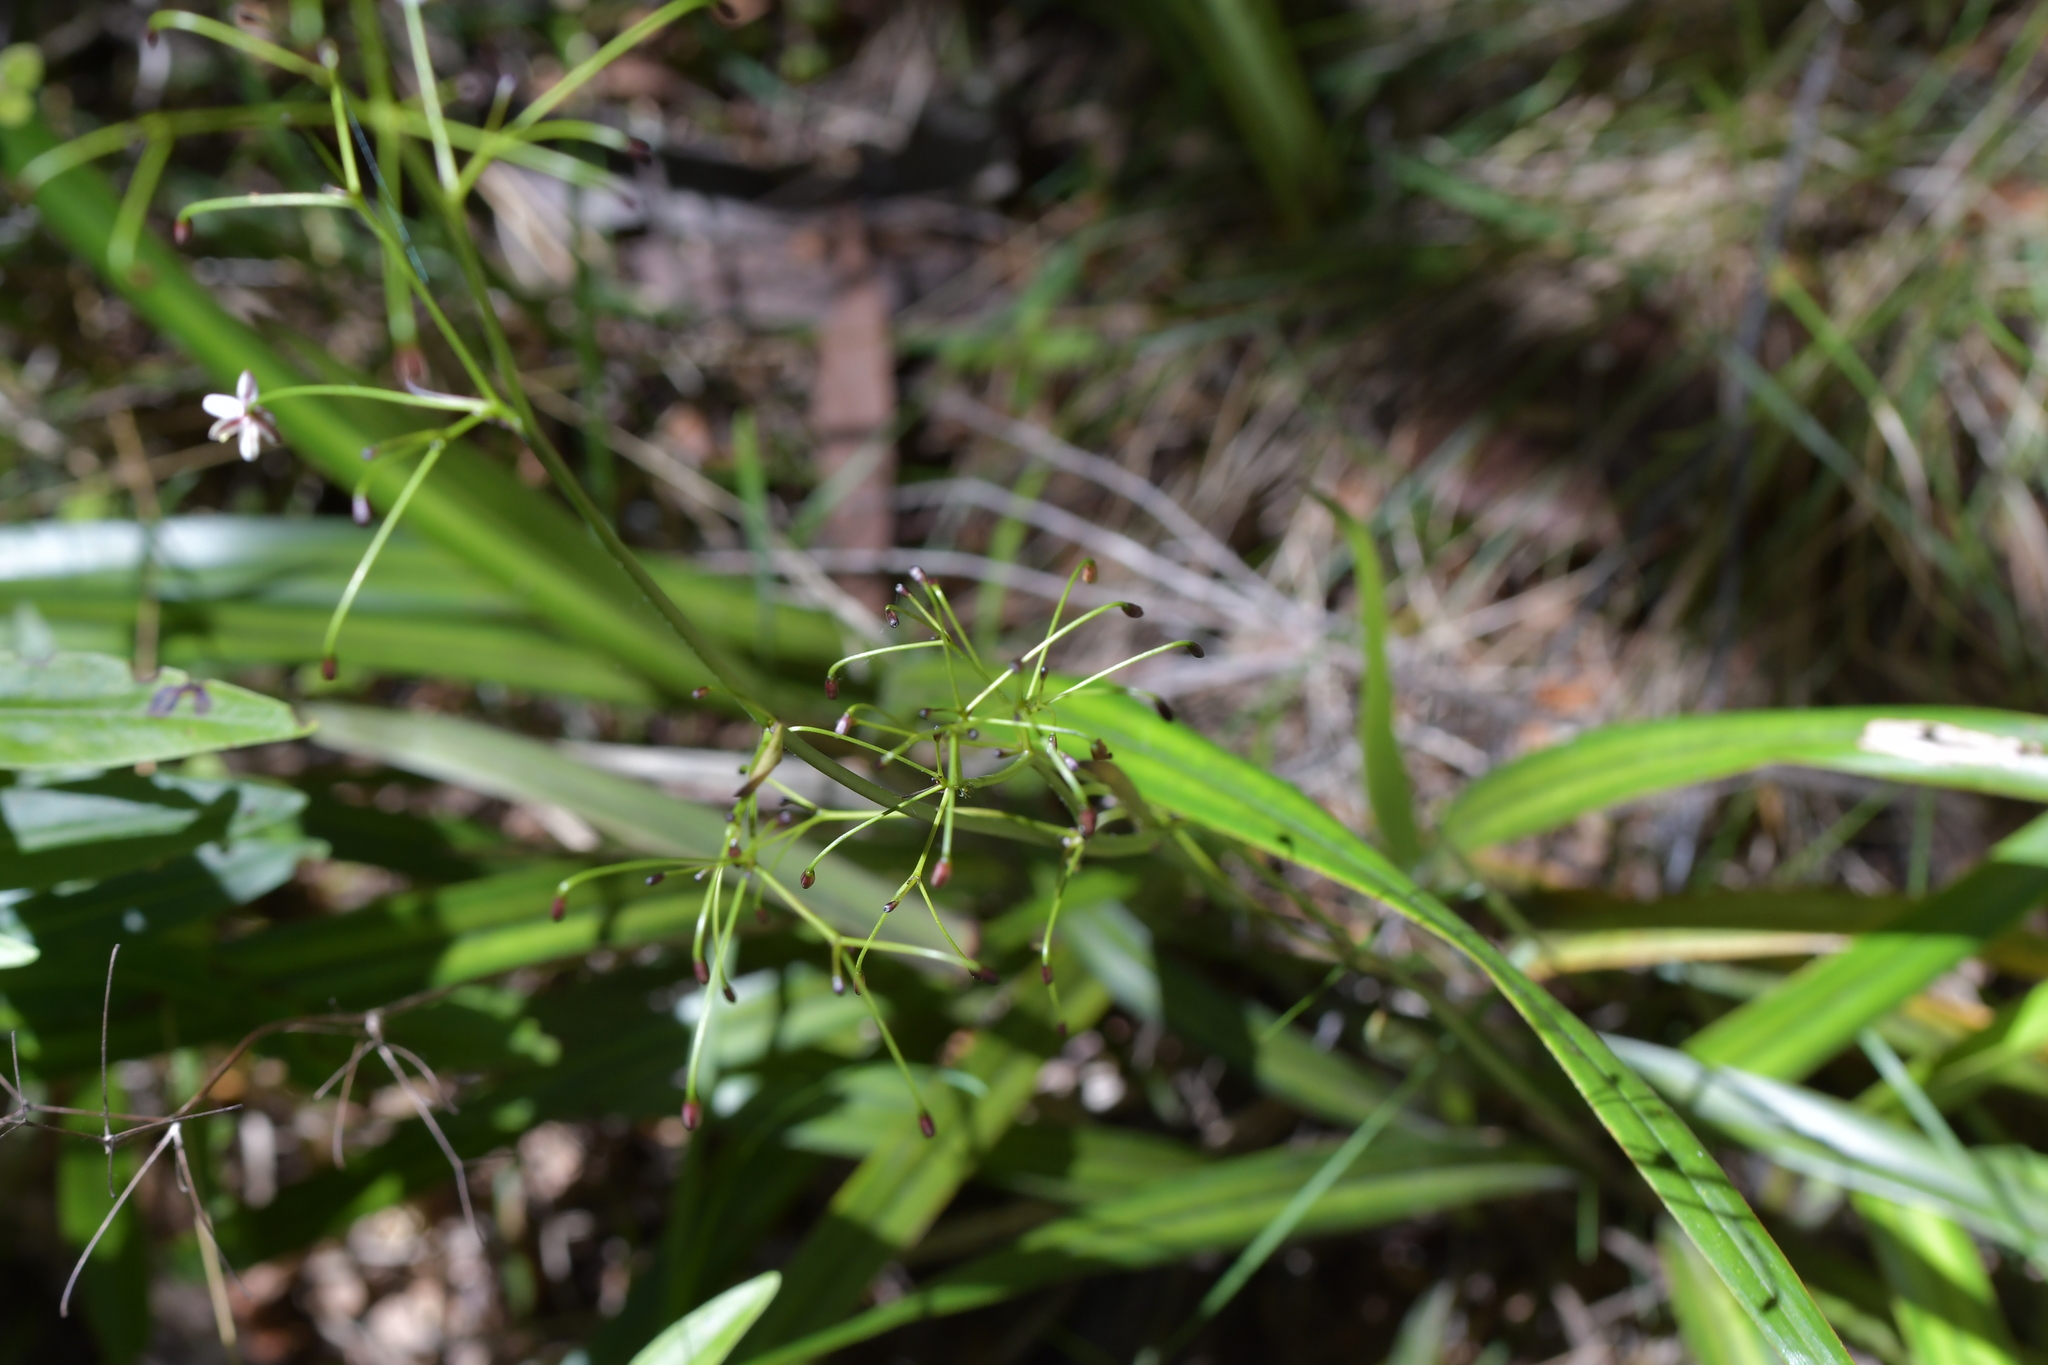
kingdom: Plantae
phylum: Tracheophyta
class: Liliopsida
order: Asparagales
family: Asphodelaceae
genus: Dianella
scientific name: Dianella nigra
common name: New zealand-blueberry
